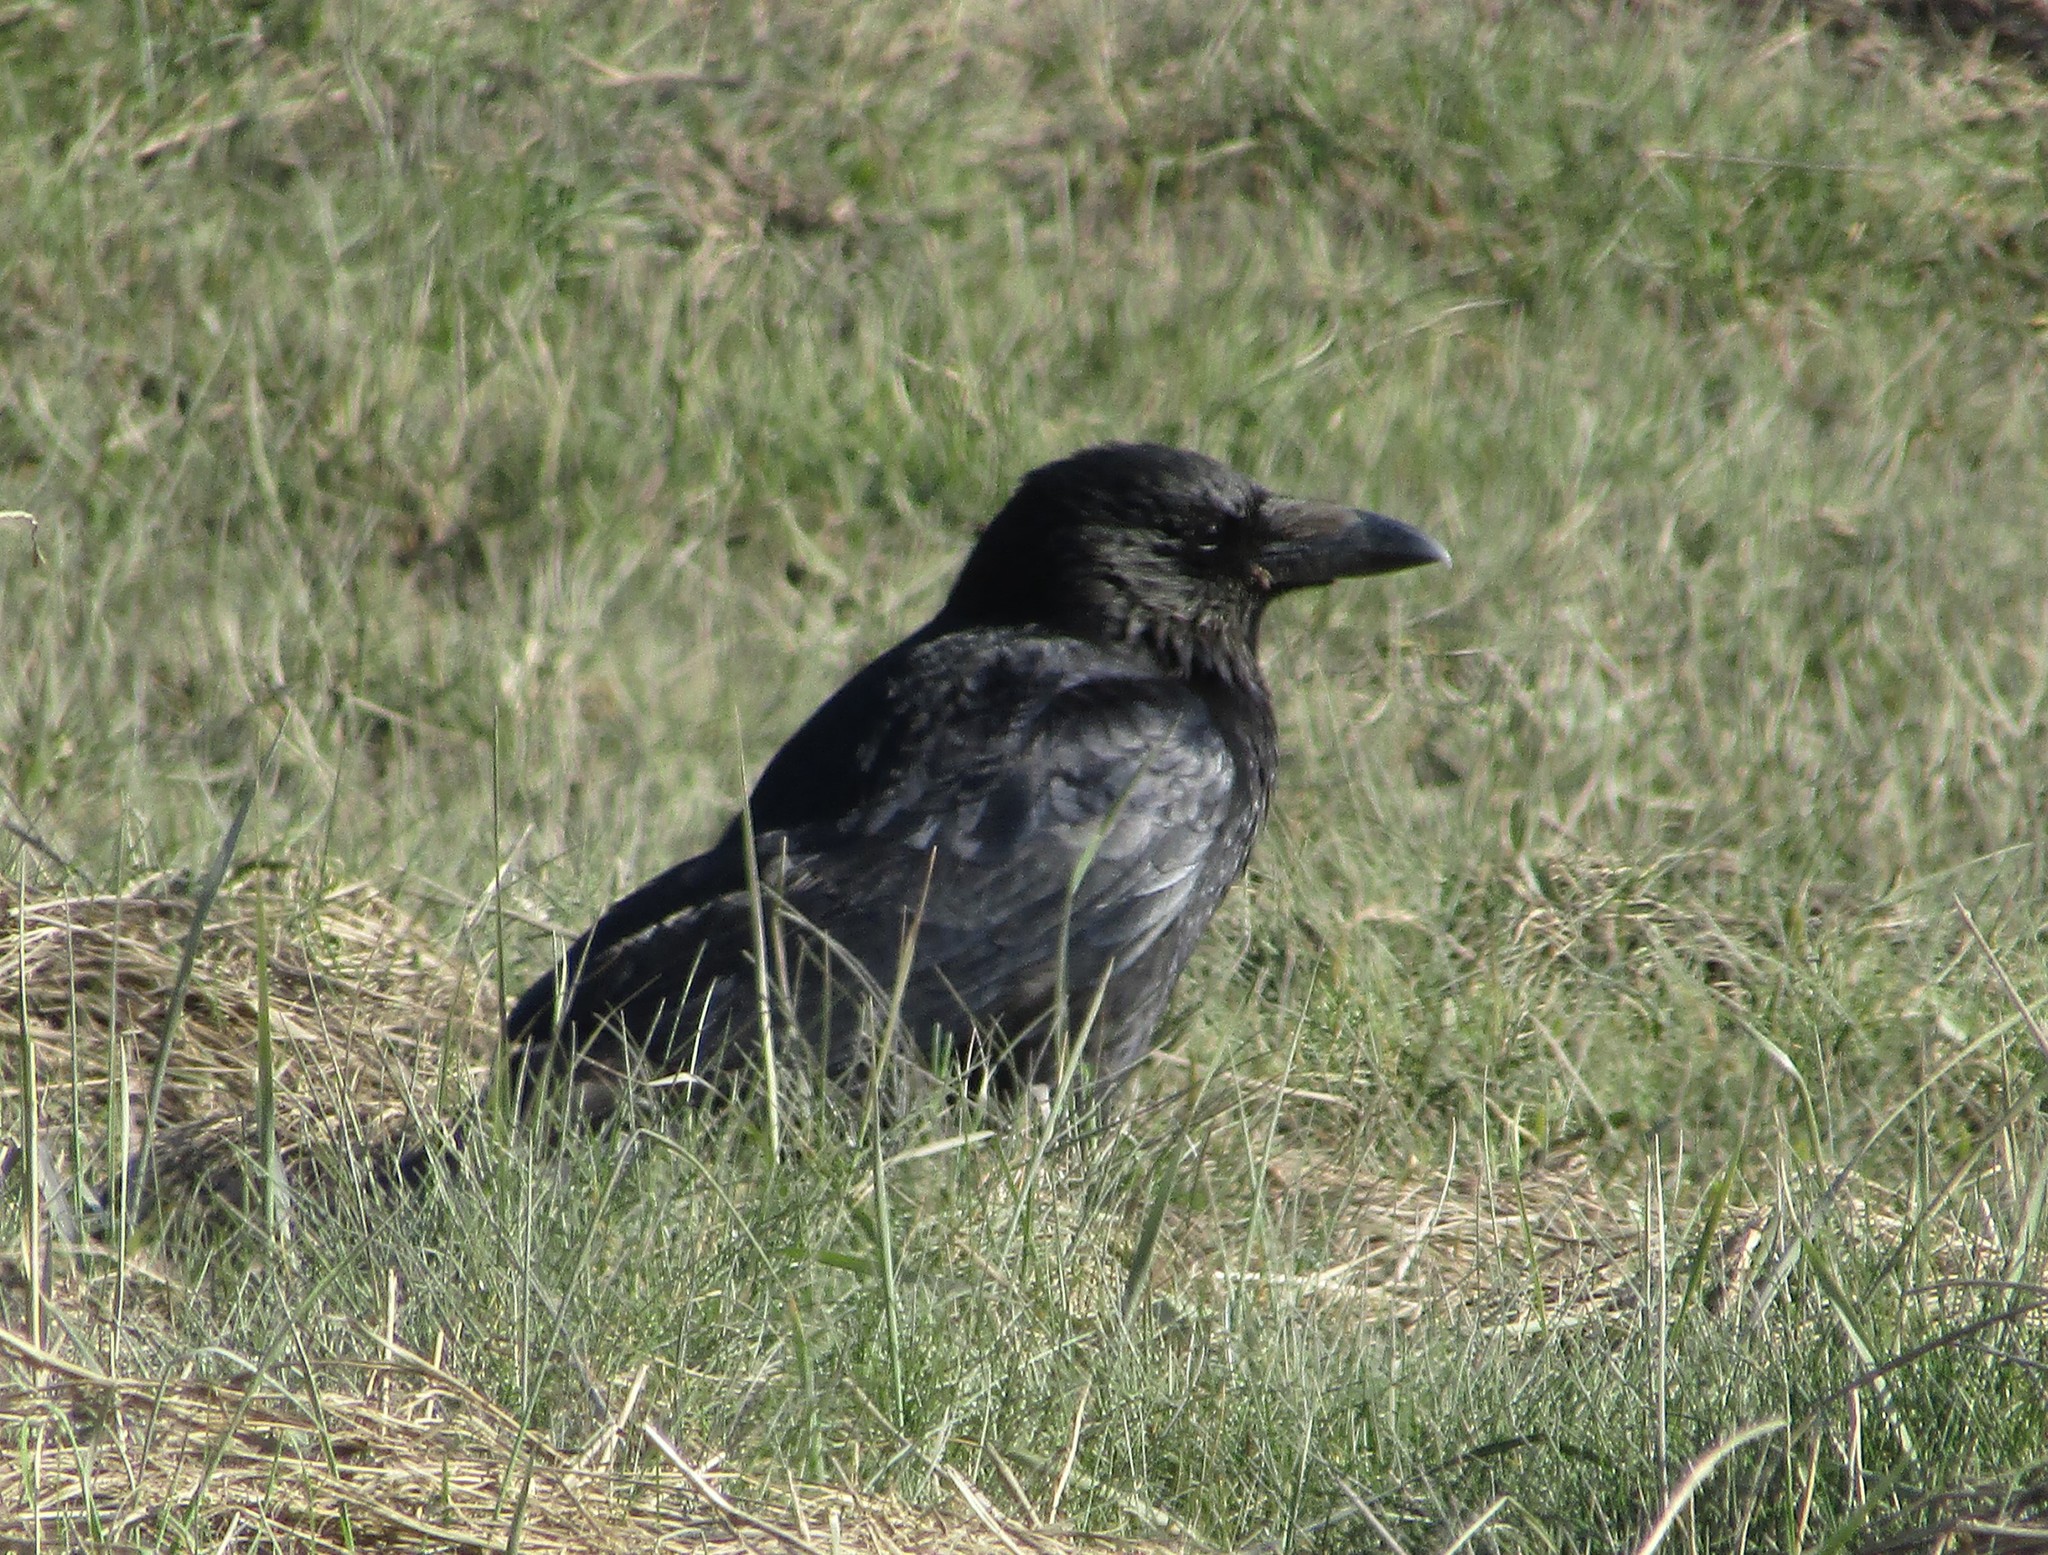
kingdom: Animalia
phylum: Chordata
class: Aves
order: Passeriformes
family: Corvidae
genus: Corvus
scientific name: Corvus corax
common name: Common raven
